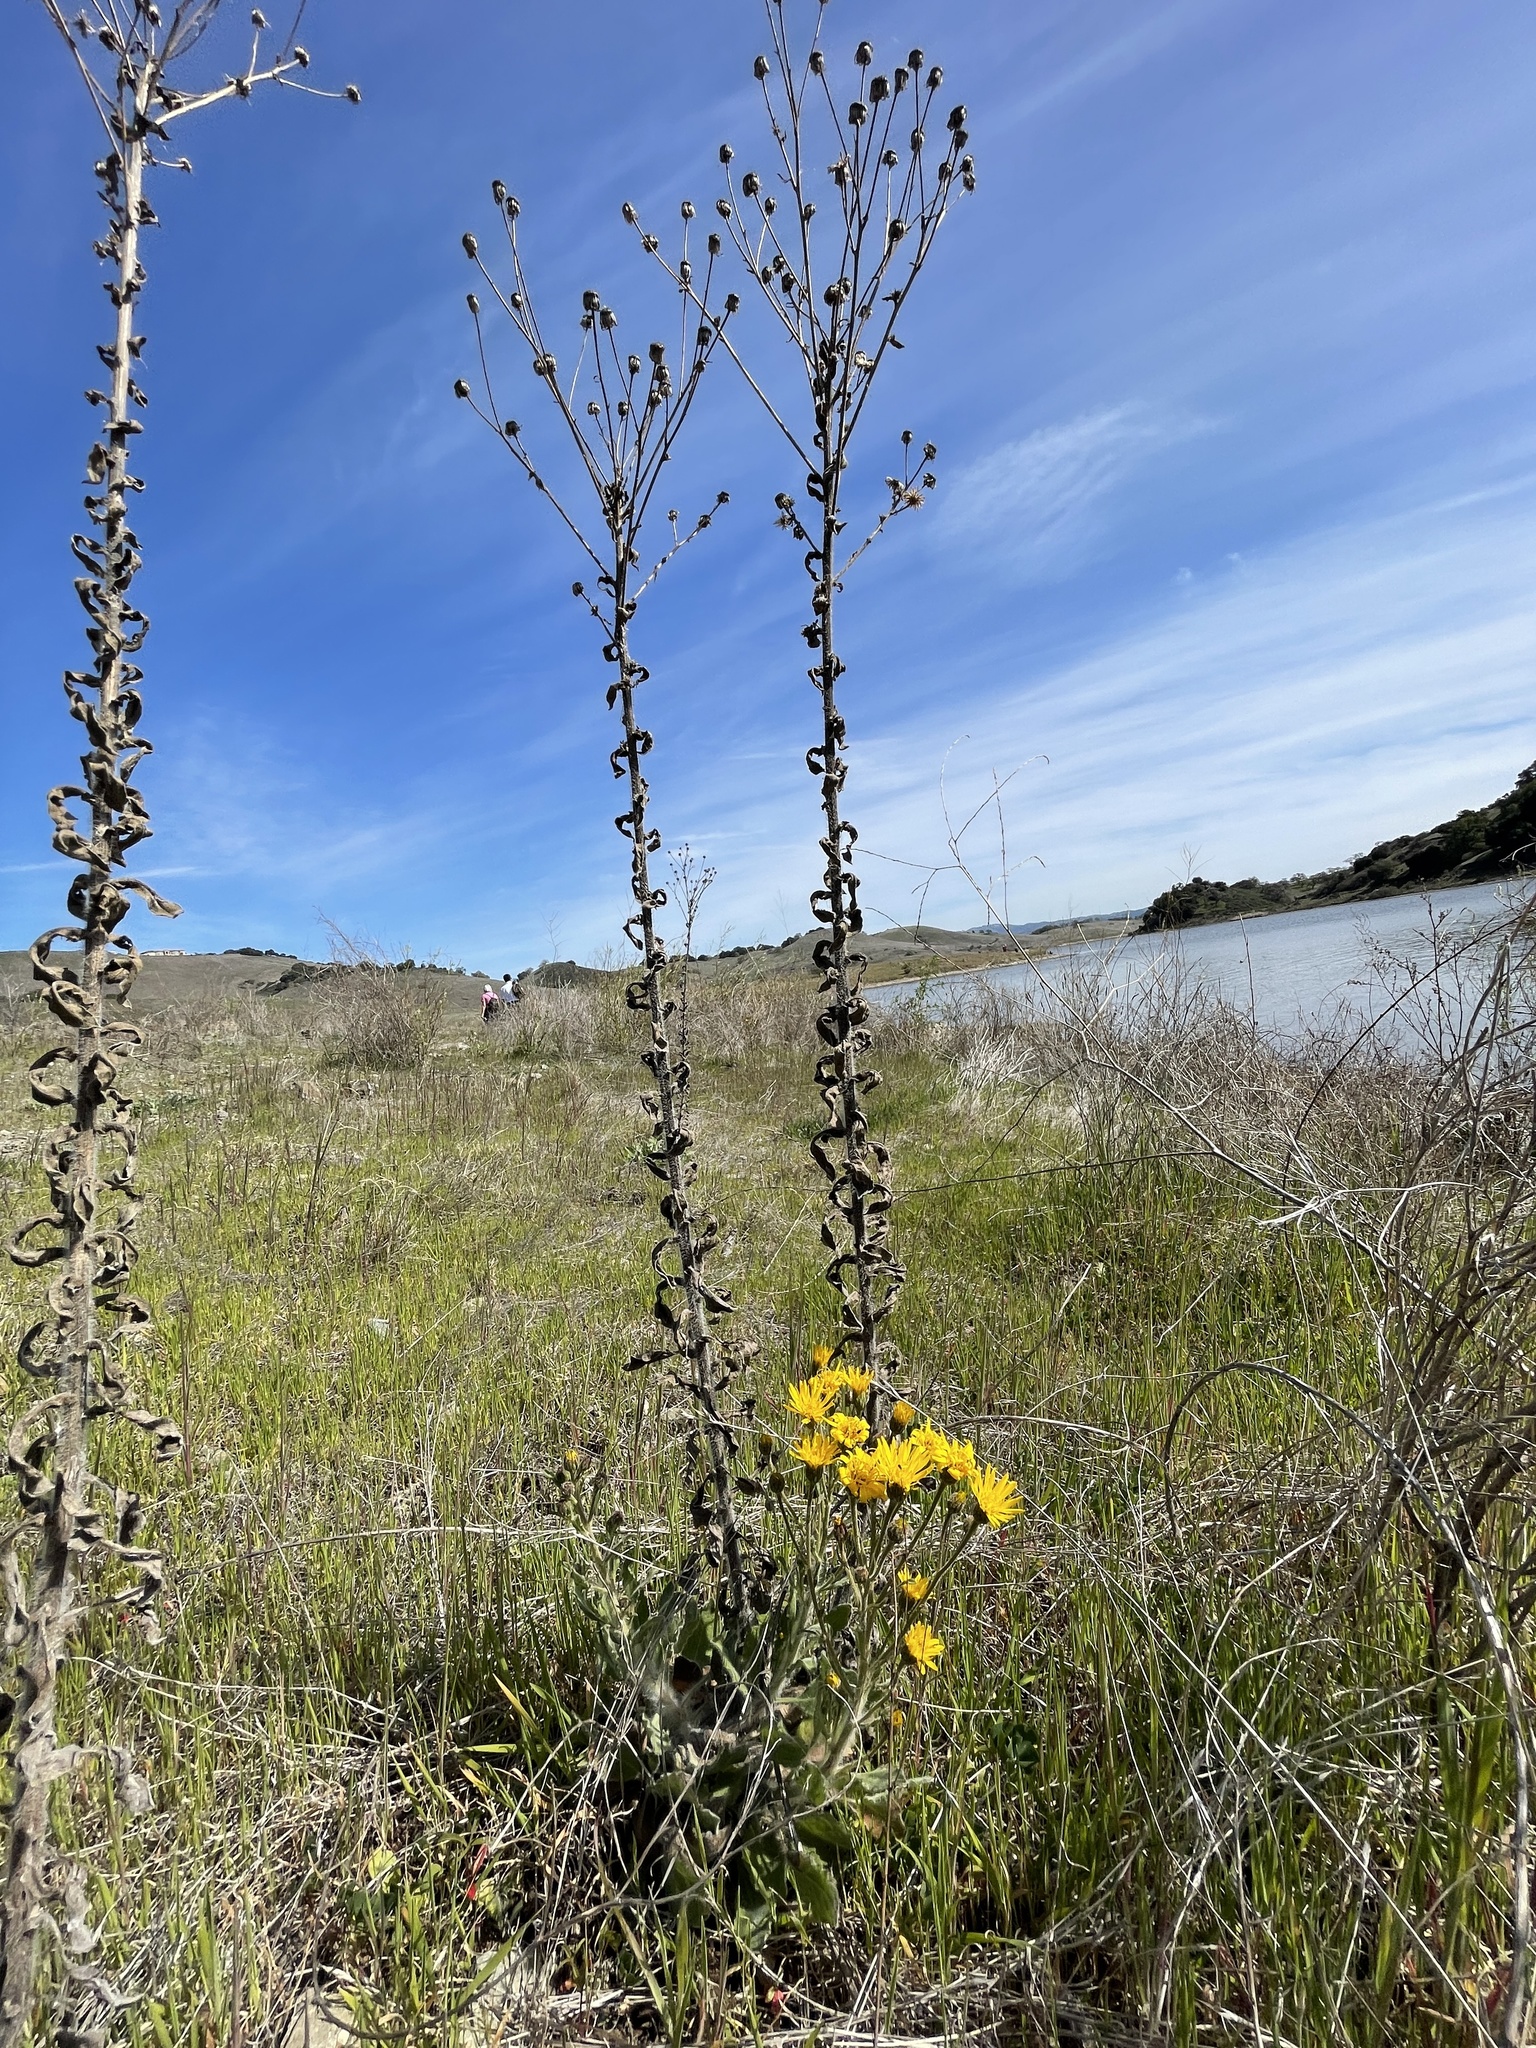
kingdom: Plantae
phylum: Tracheophyta
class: Magnoliopsida
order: Asterales
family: Asteraceae
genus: Heterotheca
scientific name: Heterotheca grandiflora
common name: Telegraphweed
